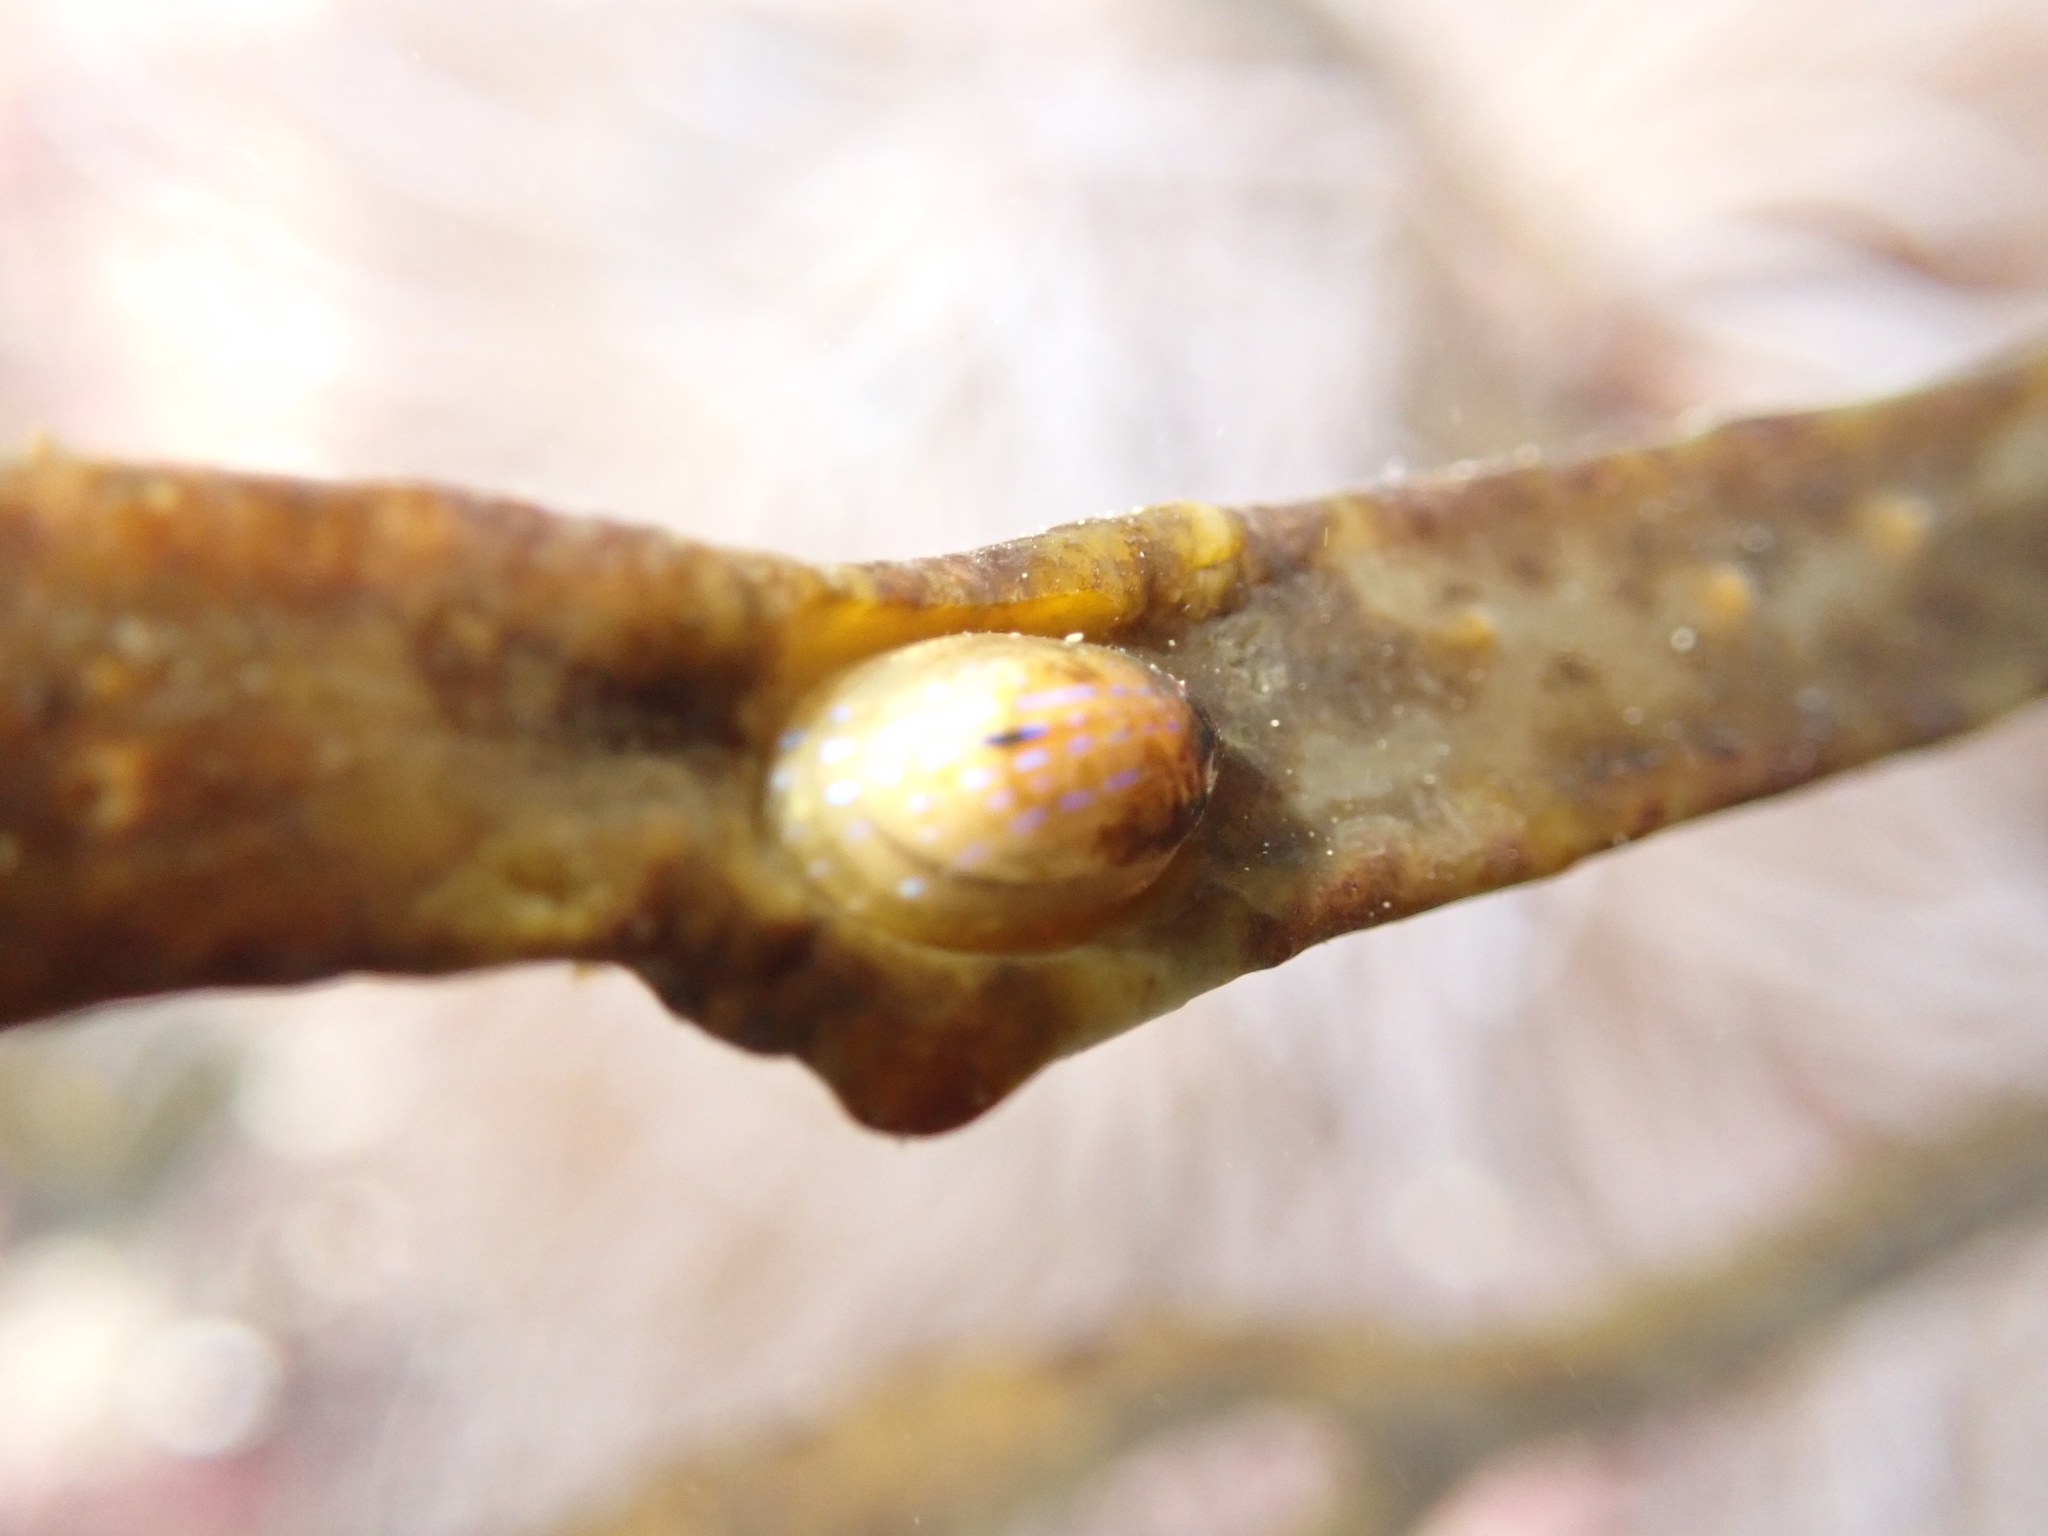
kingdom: Animalia
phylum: Mollusca
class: Gastropoda
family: Patellidae
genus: Patella
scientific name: Patella pellucida
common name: Blue-rayed limpet
